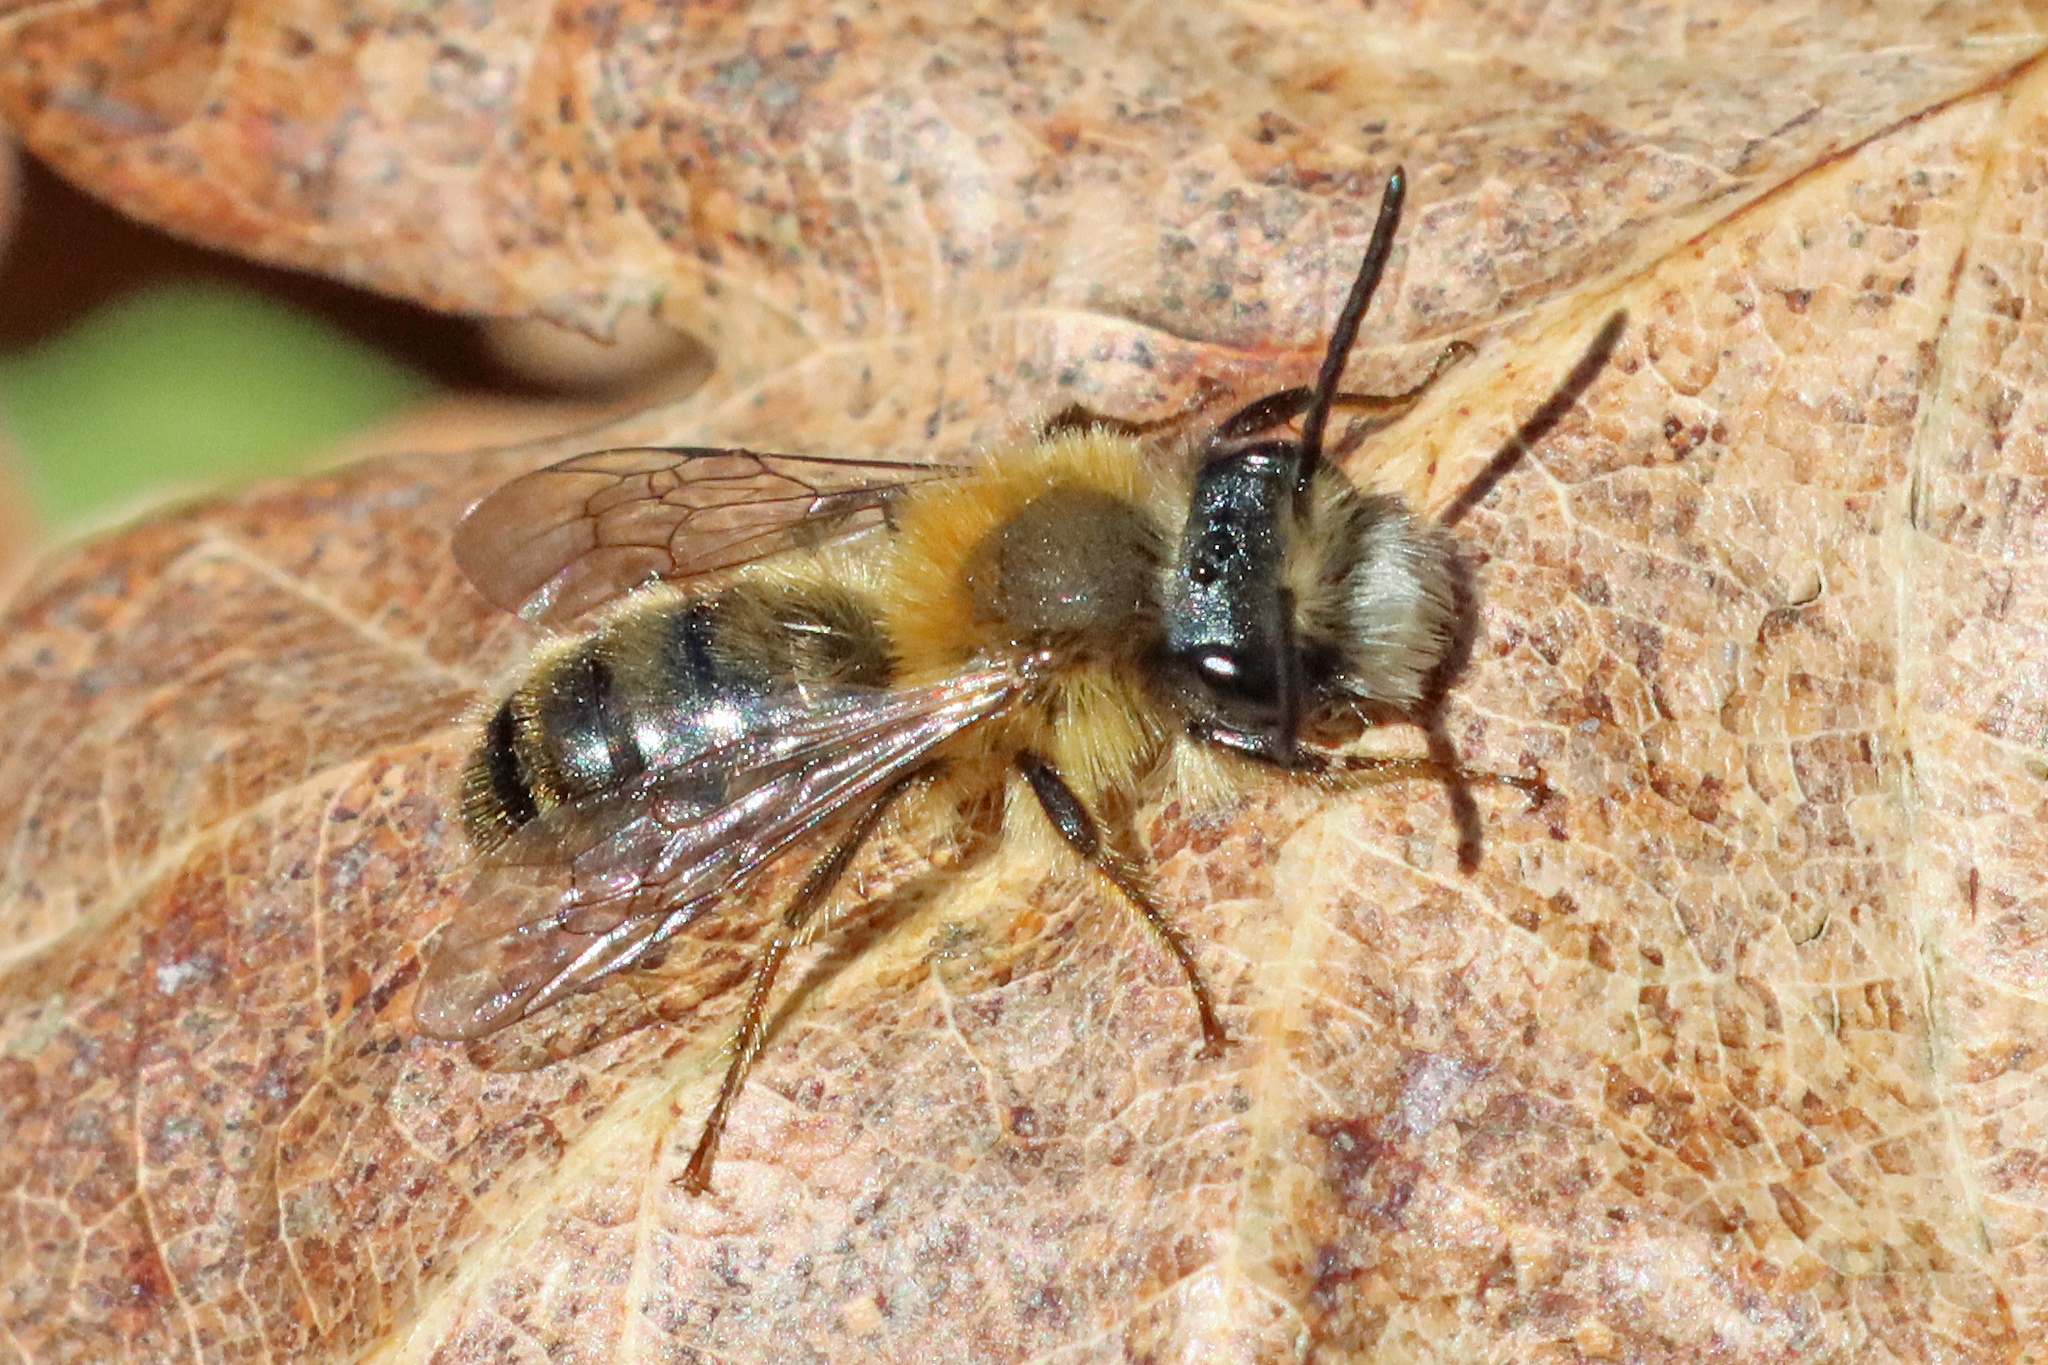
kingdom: Animalia
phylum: Arthropoda
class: Insecta
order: Hymenoptera
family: Andrenidae
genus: Andrena
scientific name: Andrena fulva
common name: Tawny mining bee
